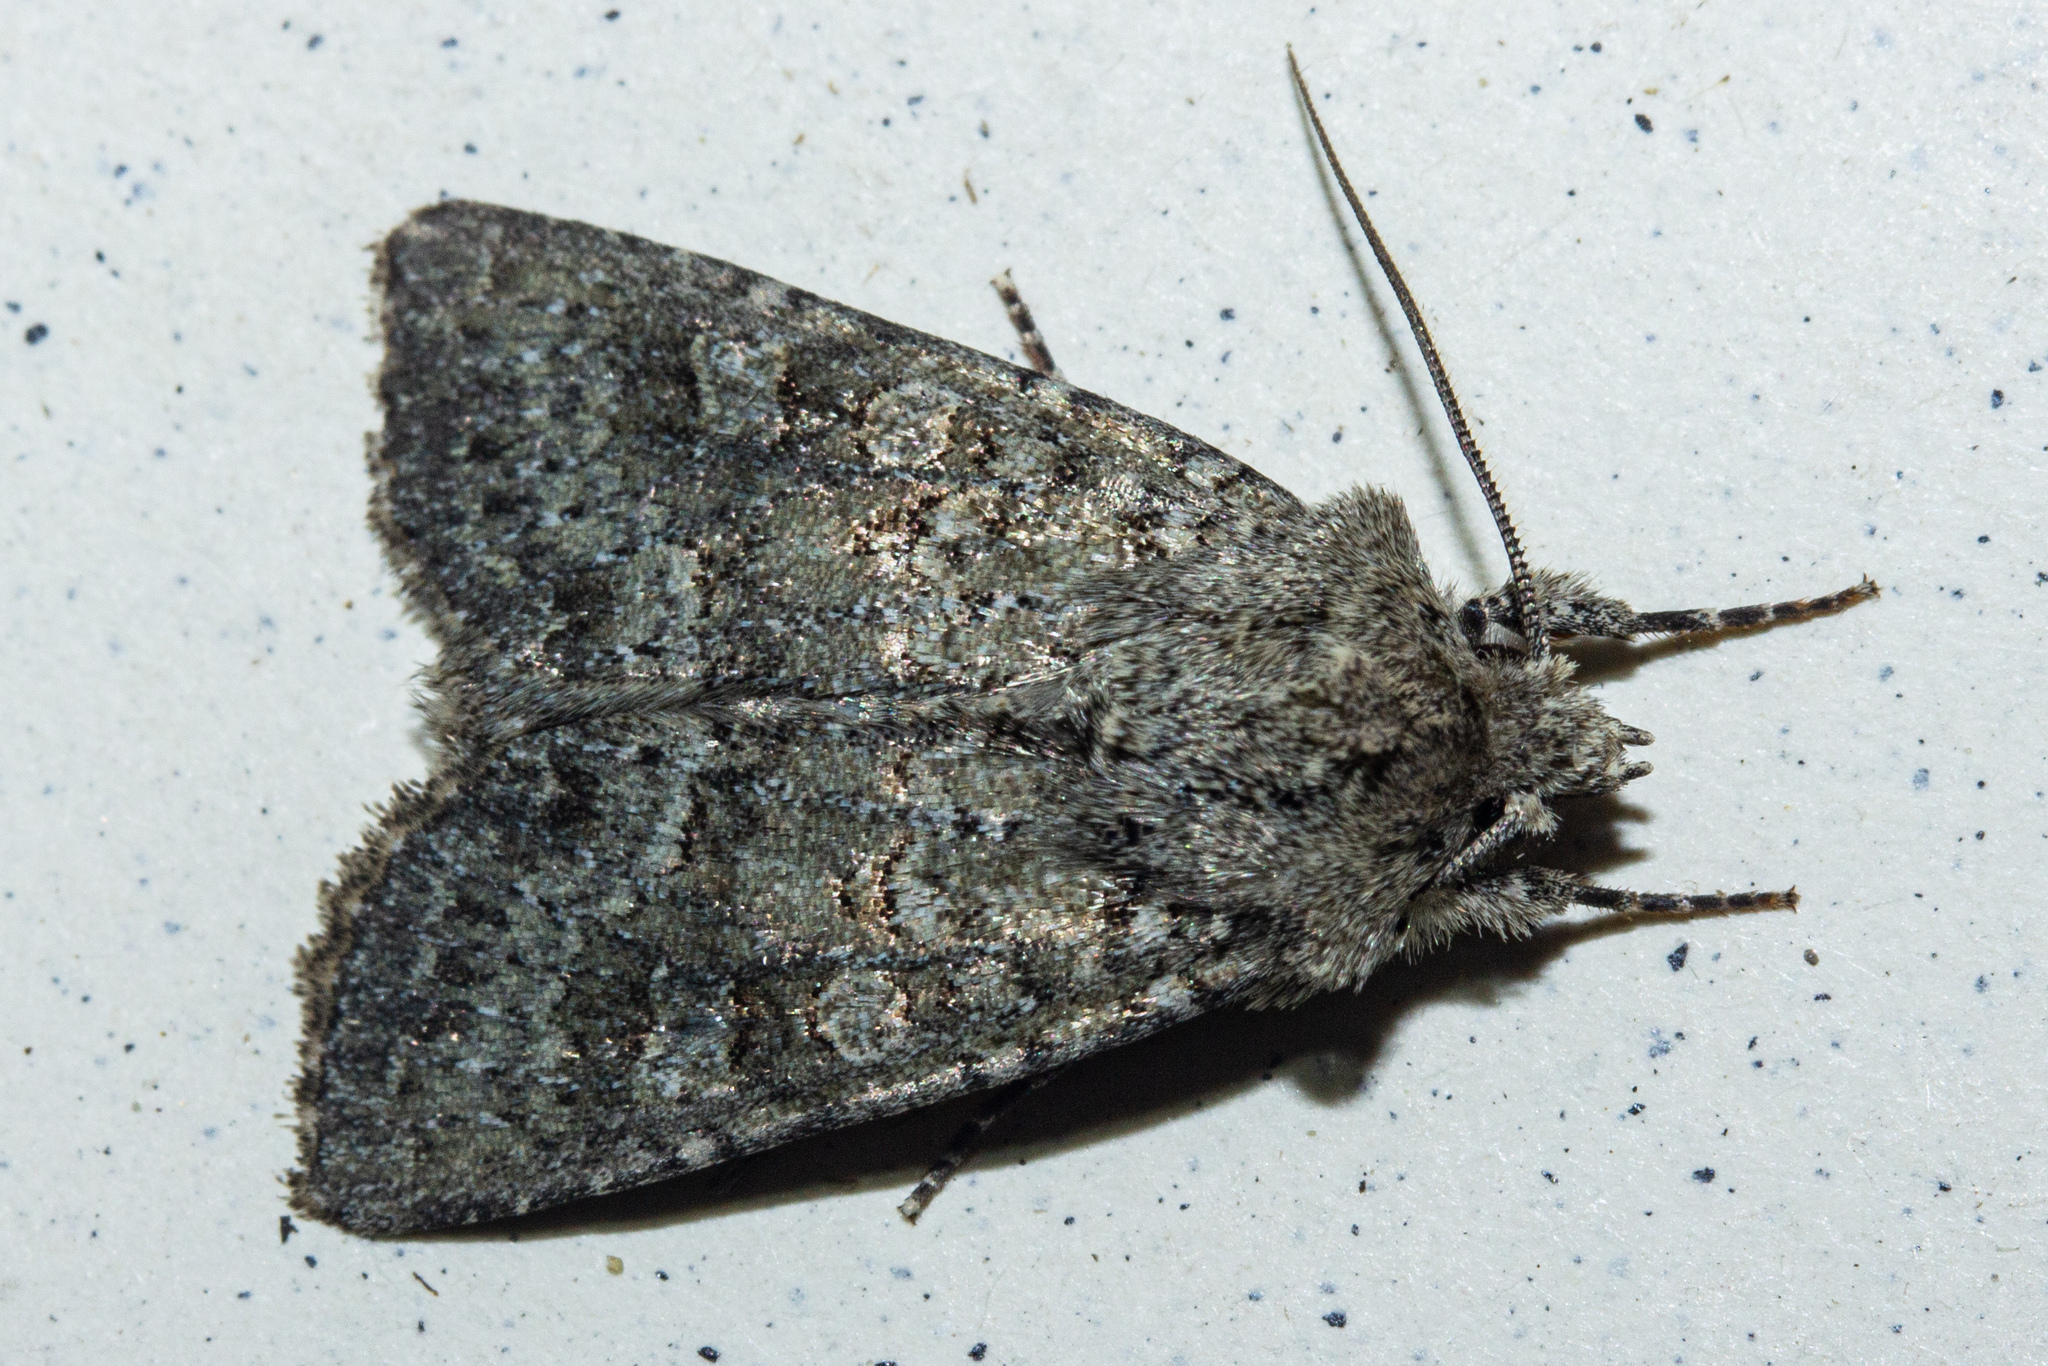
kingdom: Animalia
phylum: Arthropoda
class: Insecta
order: Lepidoptera
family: Noctuidae
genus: Ichneutica
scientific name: Ichneutica barbara
